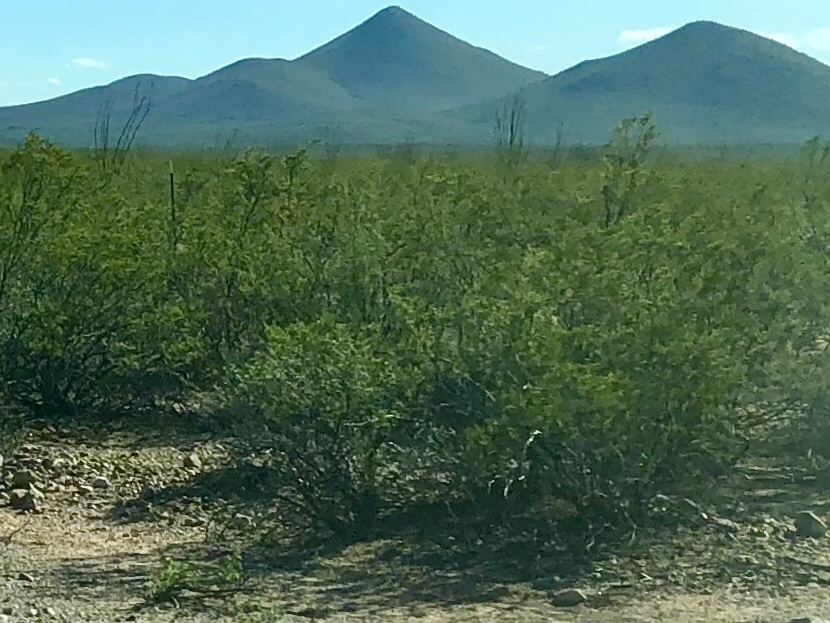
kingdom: Plantae
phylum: Tracheophyta
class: Magnoliopsida
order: Zygophyllales
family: Zygophyllaceae
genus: Larrea
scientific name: Larrea tridentata
